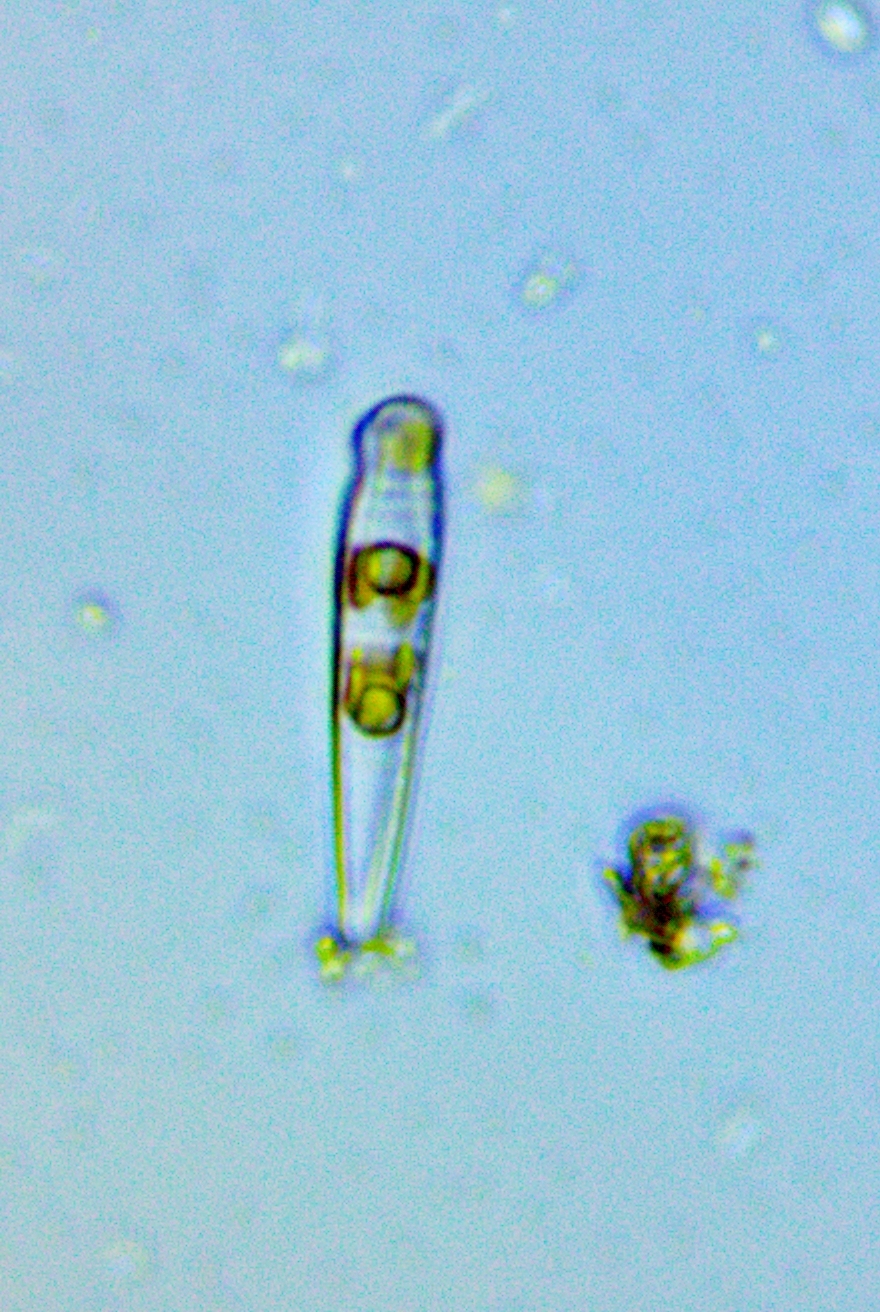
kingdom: Chromista
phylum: Ochrophyta
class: Bacillariophyceae
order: Fragilariales
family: Fragilariaceae
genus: Meridion
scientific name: Meridion constrictum
